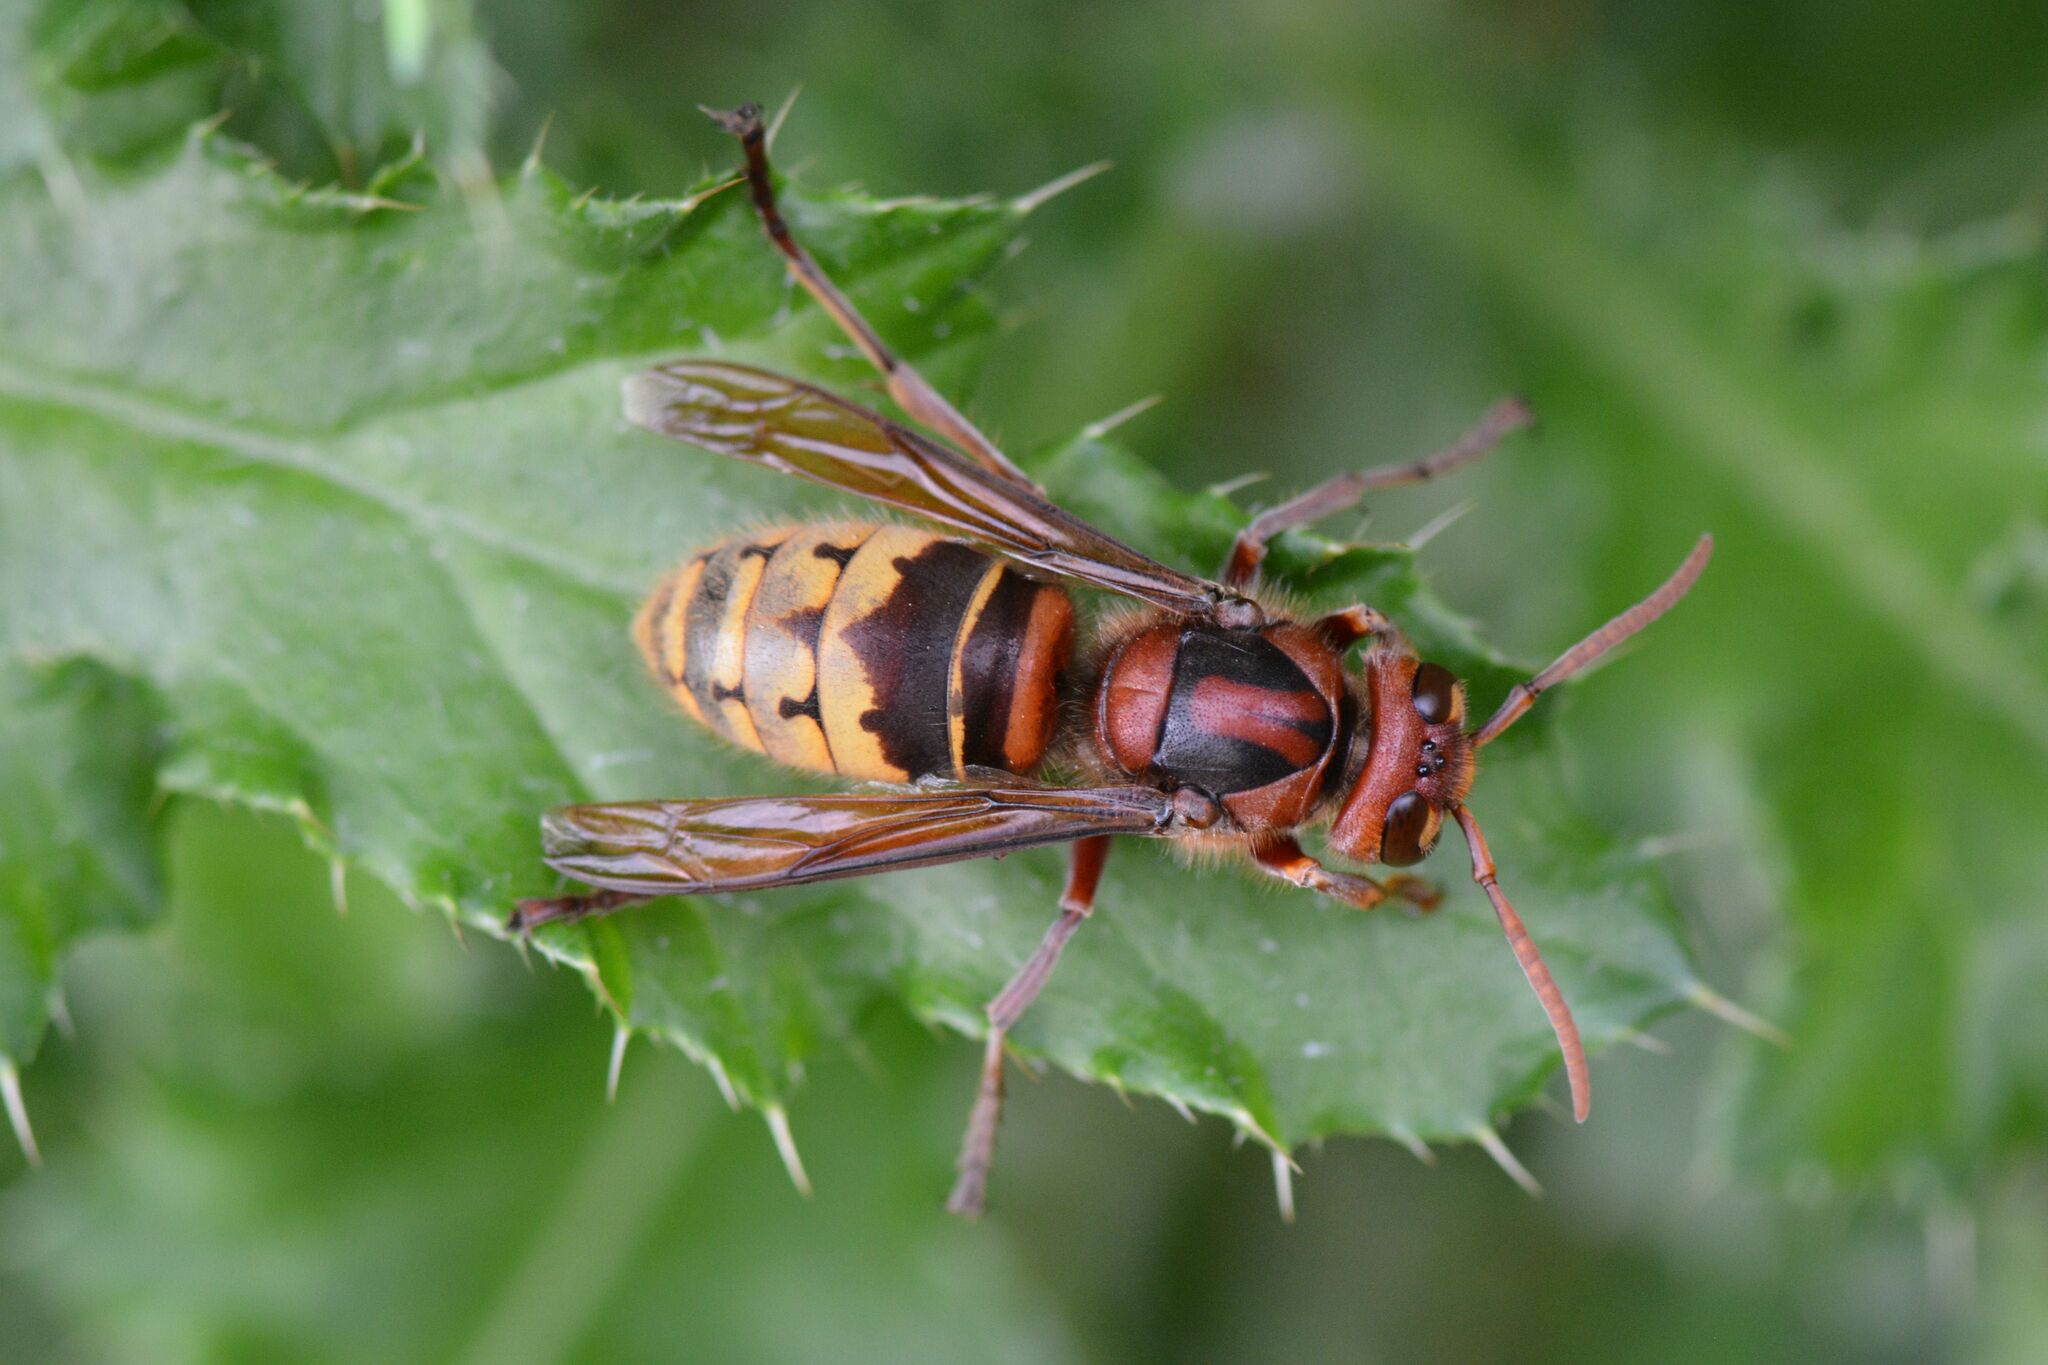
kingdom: Animalia
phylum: Arthropoda
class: Insecta
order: Hymenoptera
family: Vespidae
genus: Vespa
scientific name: Vespa crabro
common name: Hornet
